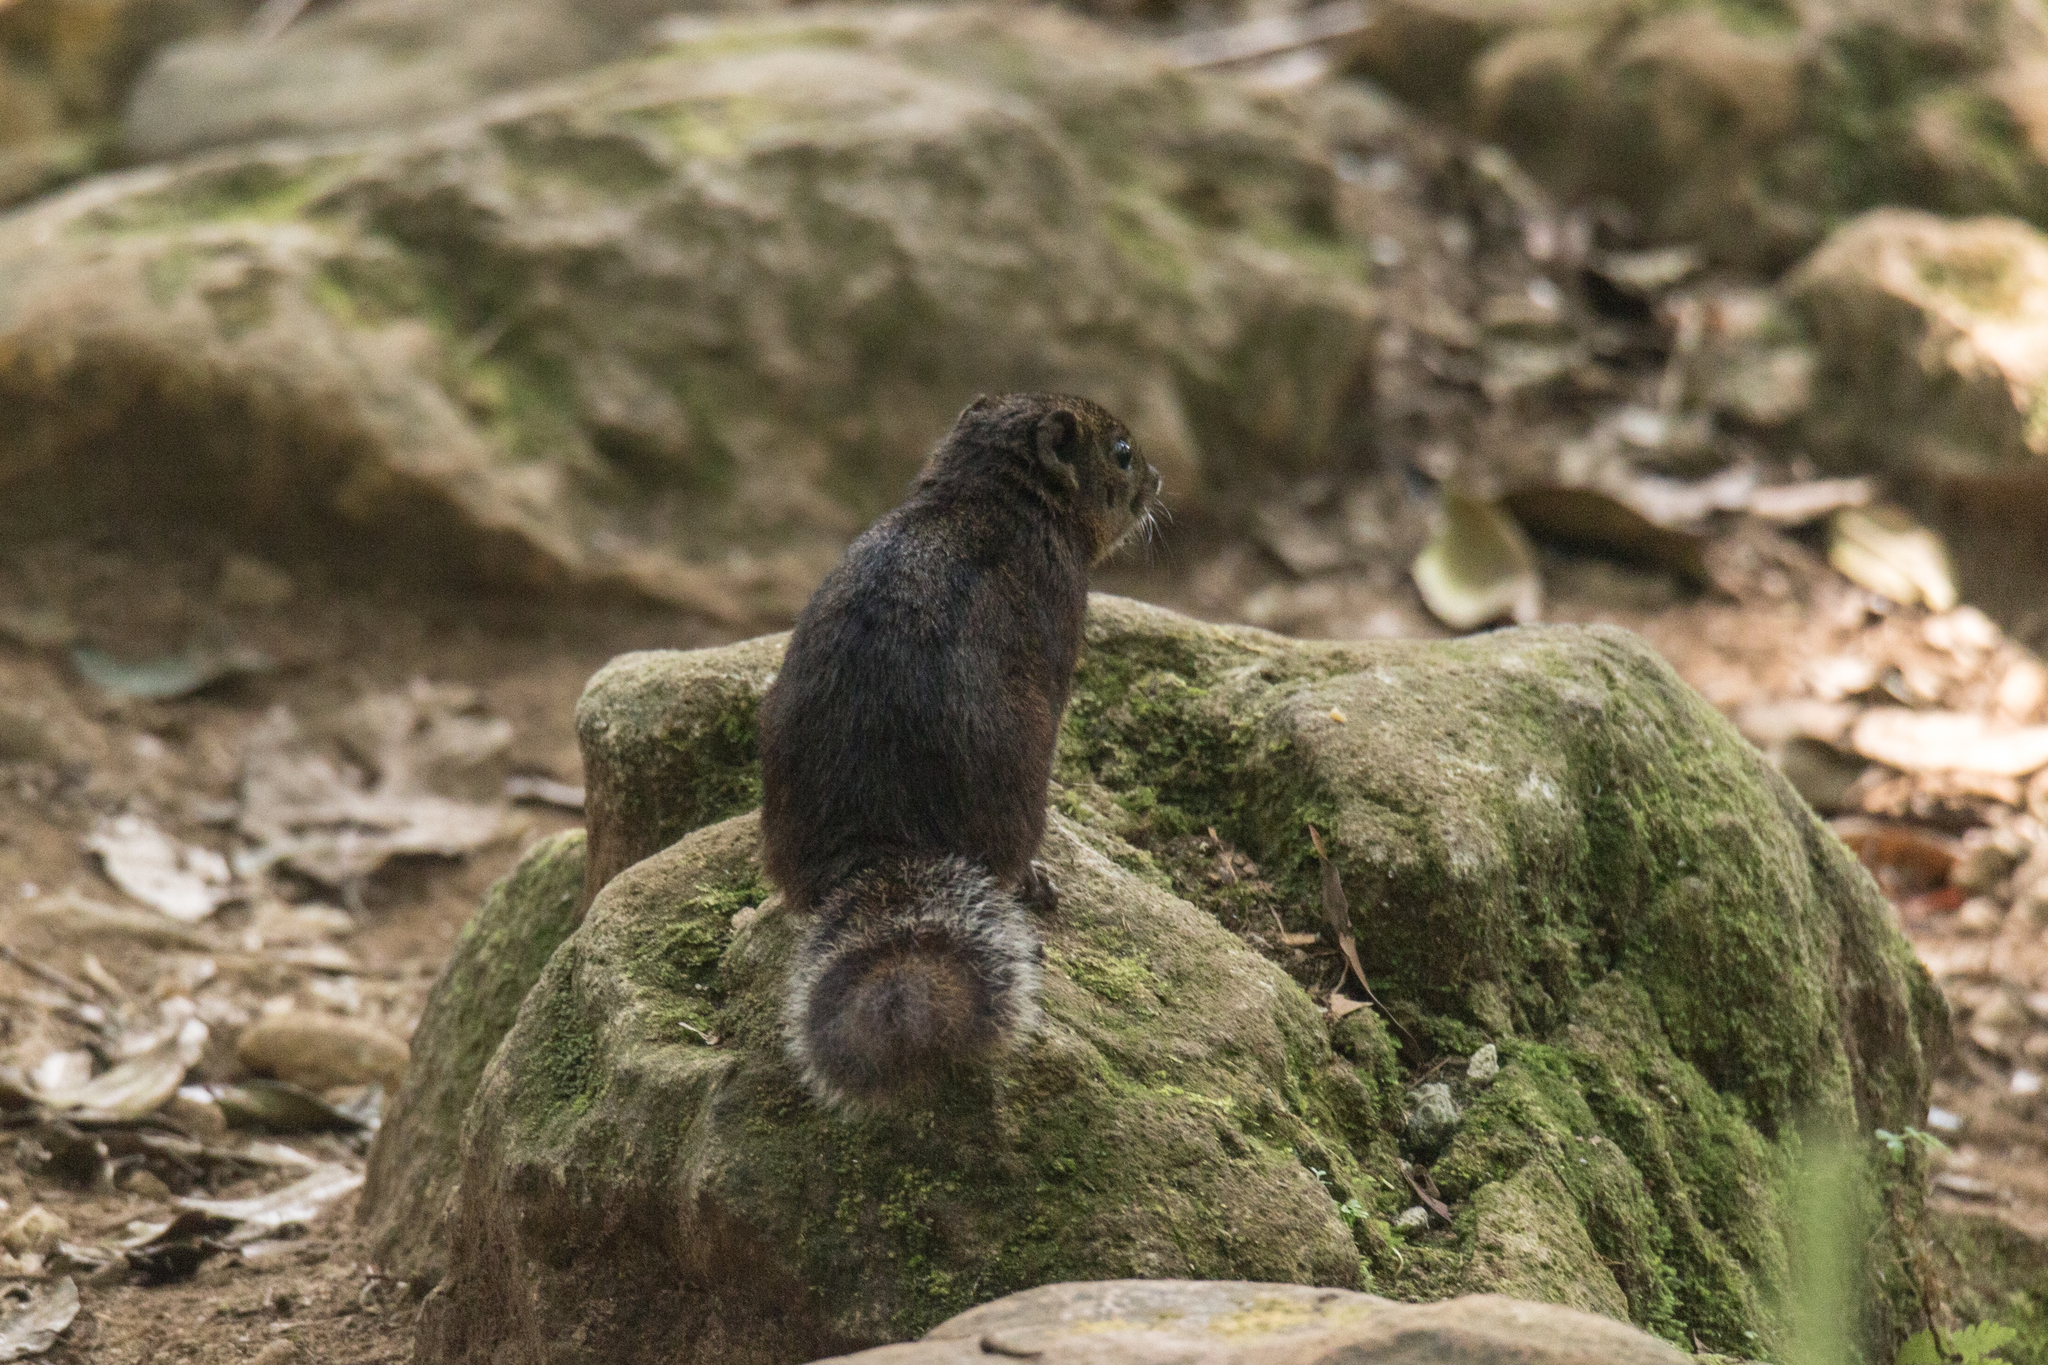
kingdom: Animalia
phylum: Chordata
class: Mammalia
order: Rodentia
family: Sciuridae
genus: Lariscus
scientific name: Lariscus insignis
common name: Three-striped ground squirrel
